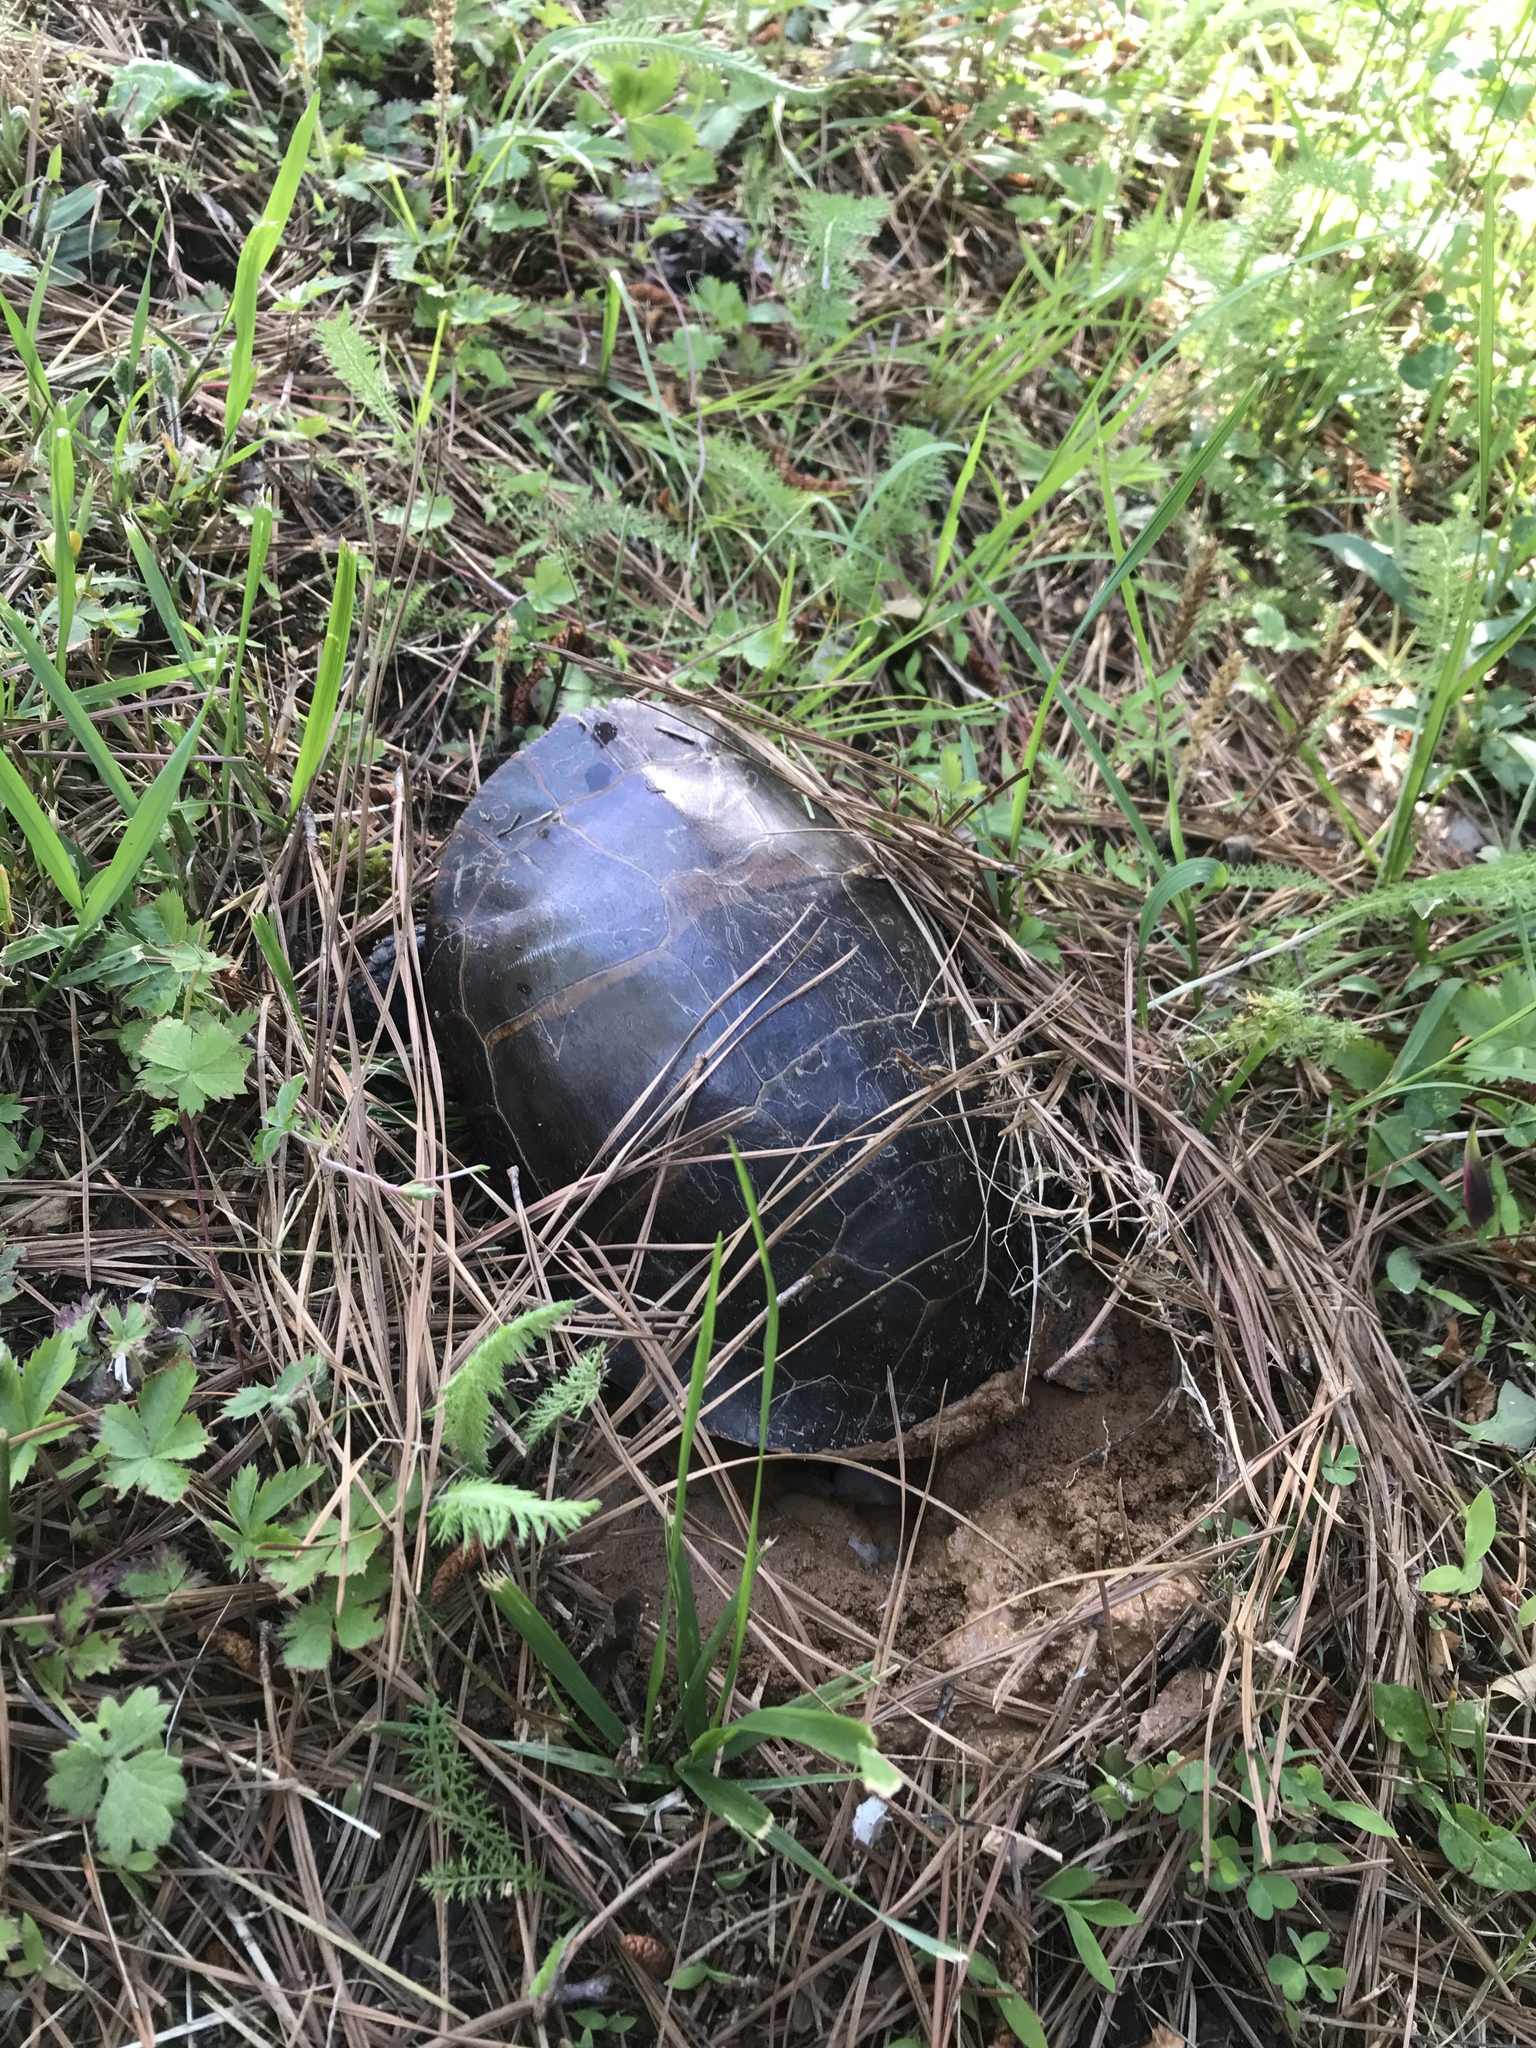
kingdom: Animalia
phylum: Chordata
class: Testudines
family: Emydidae
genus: Chrysemys
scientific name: Chrysemys picta
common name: Painted turtle
